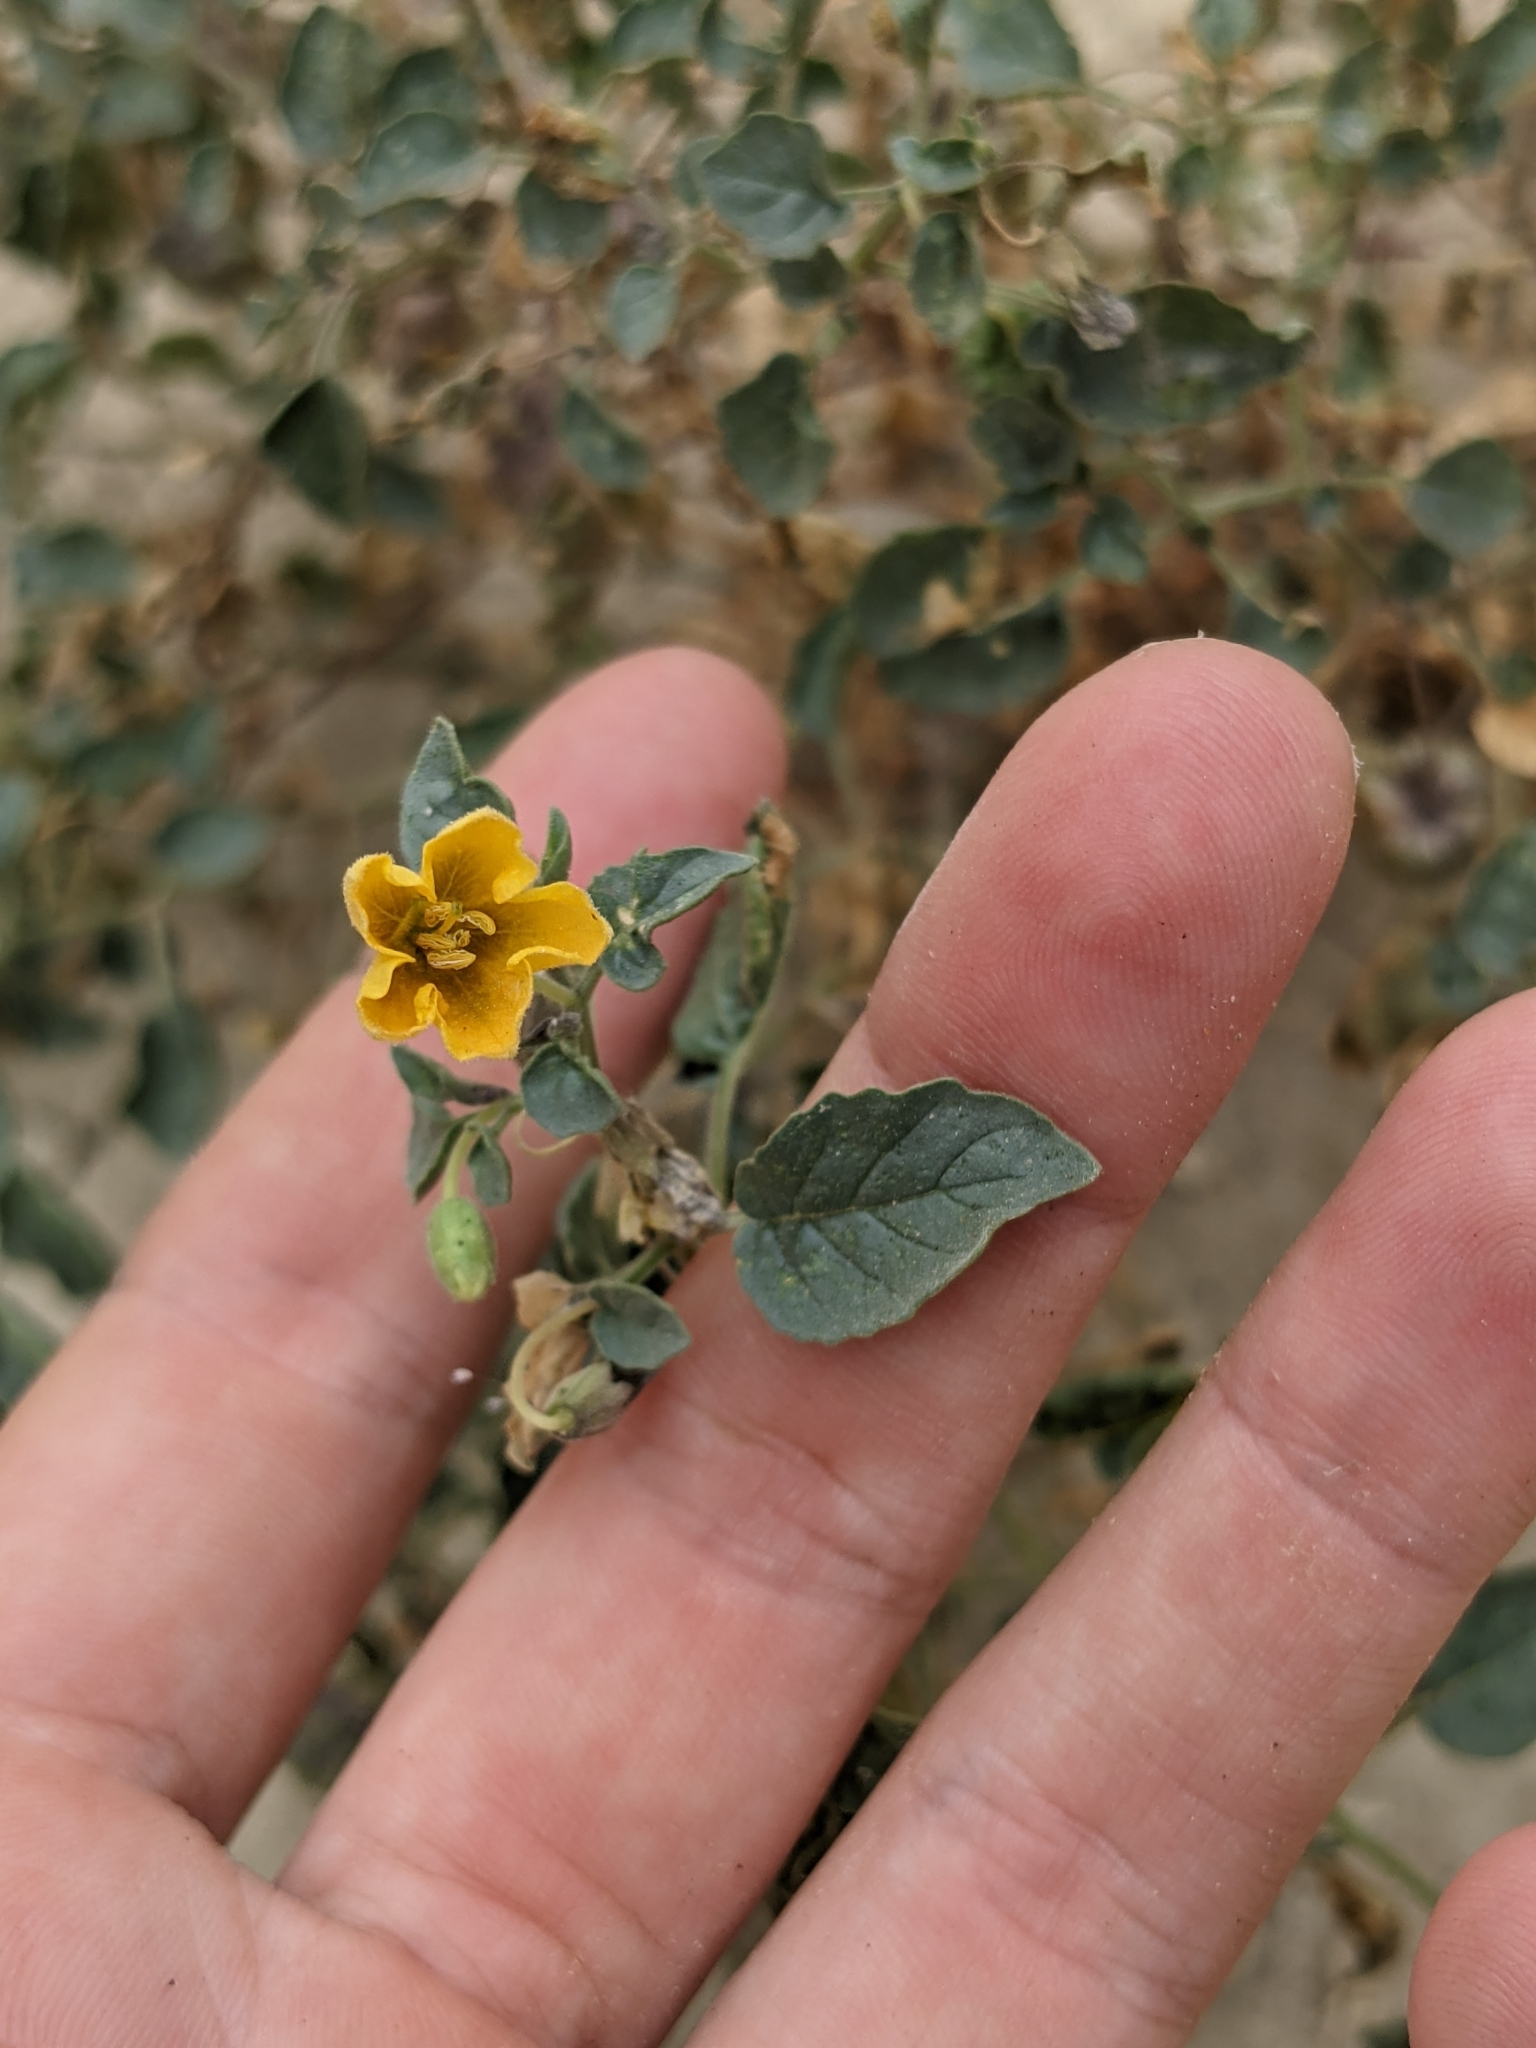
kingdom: Plantae
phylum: Tracheophyta
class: Magnoliopsida
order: Solanales
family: Solanaceae
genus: Physalis
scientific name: Physalis crassifolia
